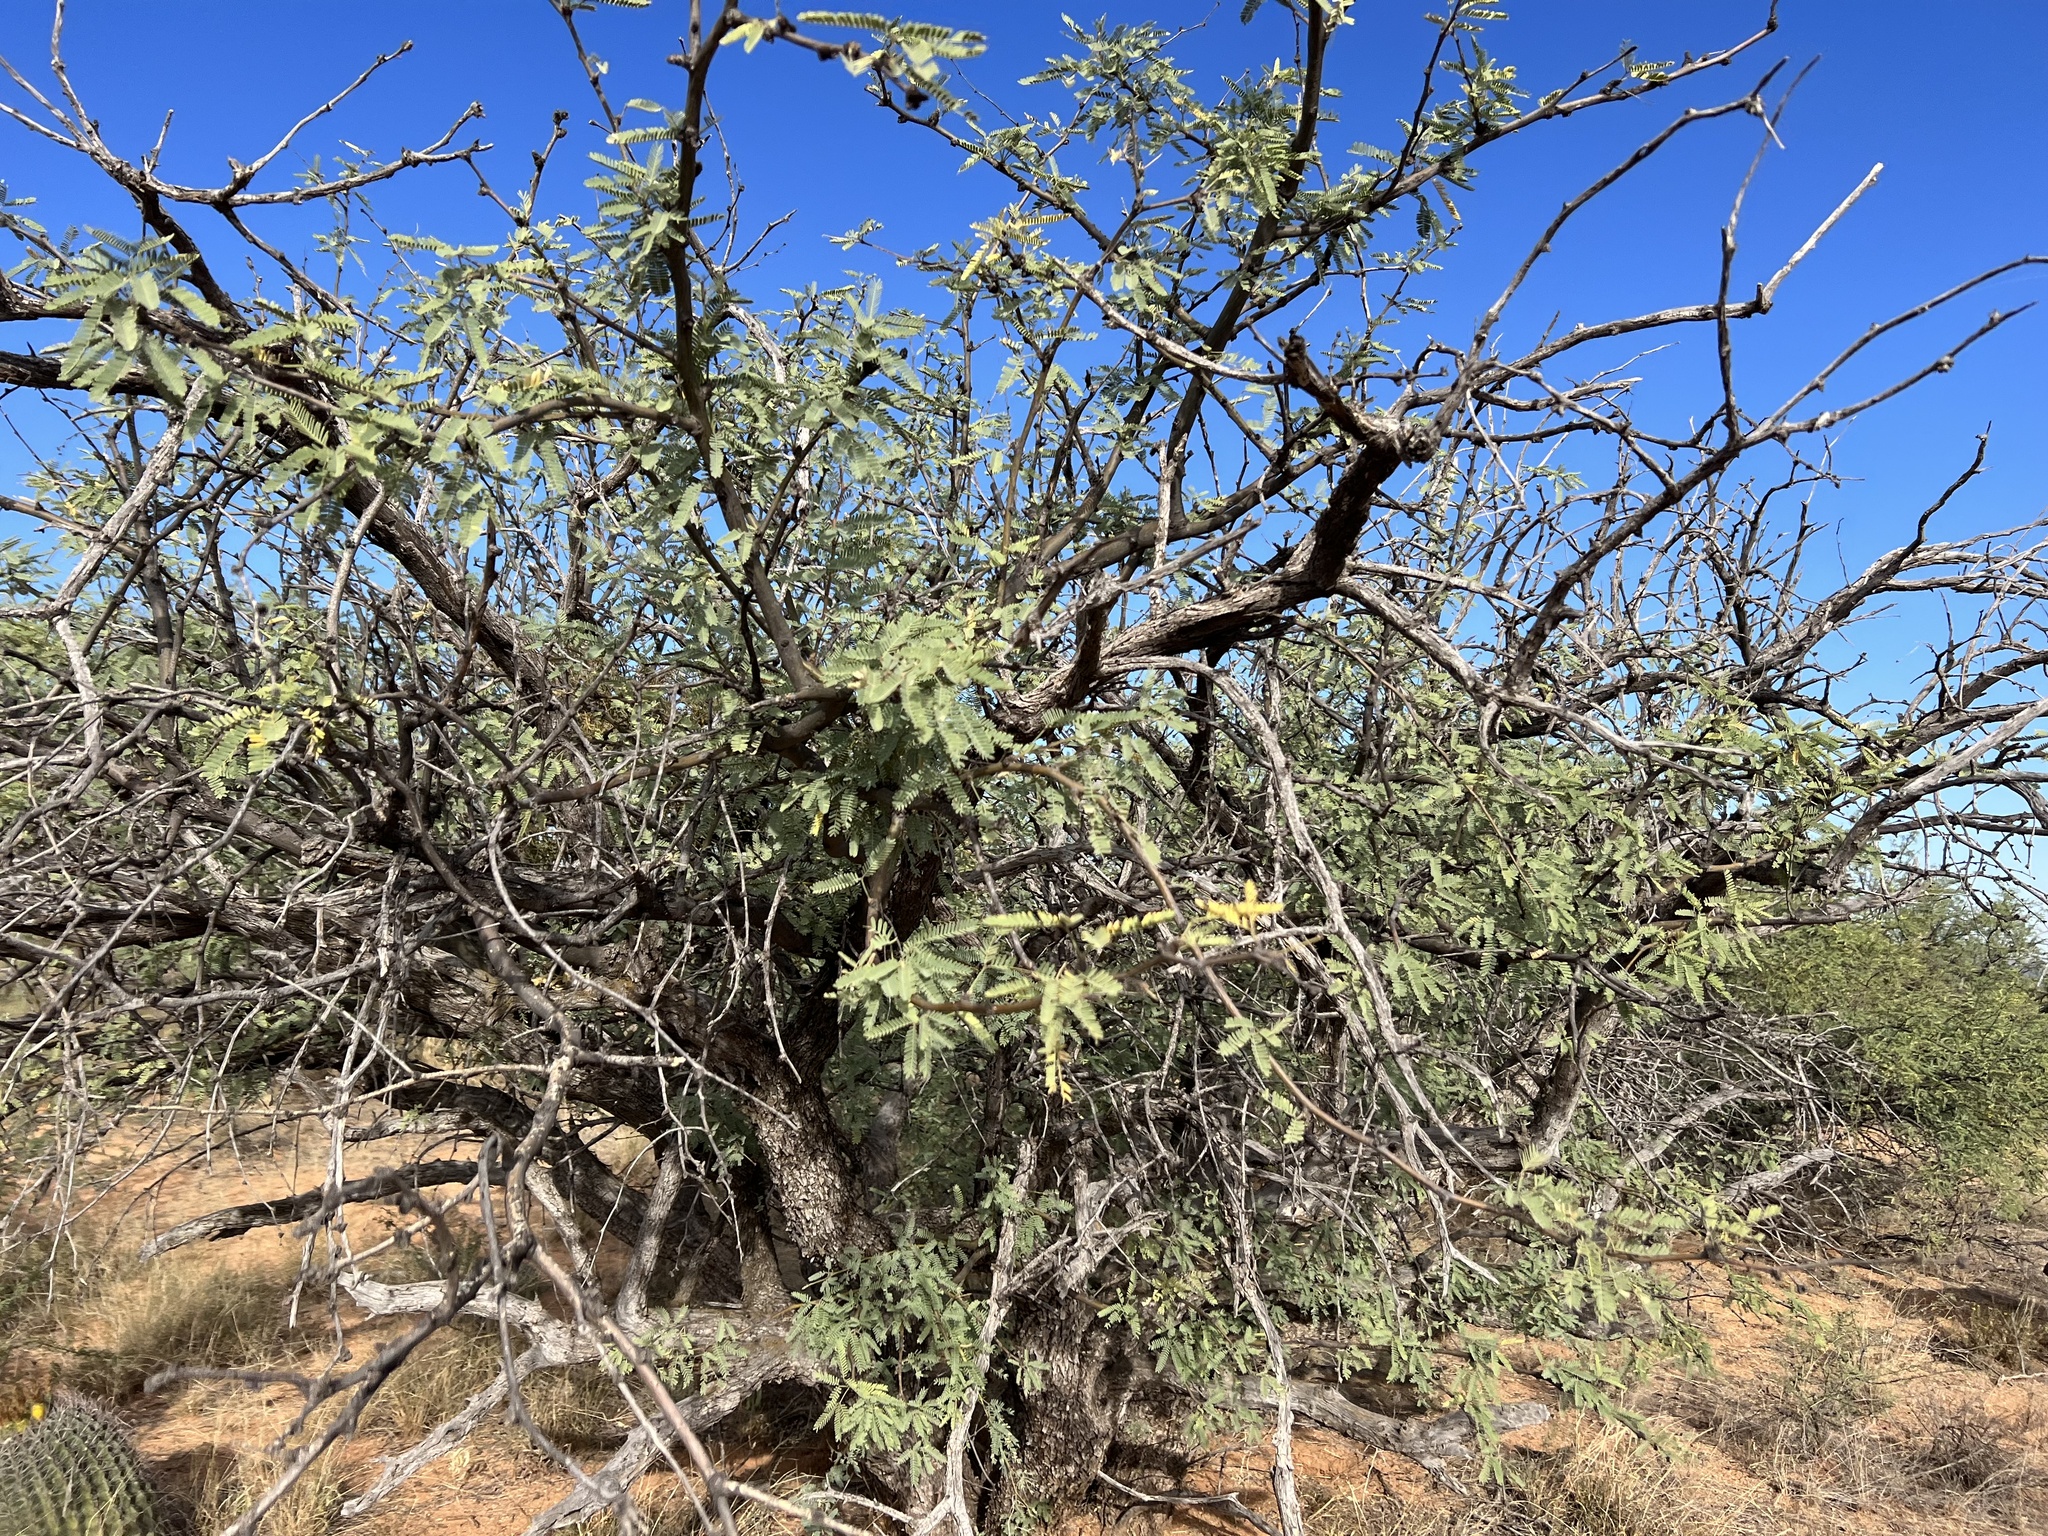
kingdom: Plantae
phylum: Tracheophyta
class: Magnoliopsida
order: Fabales
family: Fabaceae
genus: Prosopis
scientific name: Prosopis velutina
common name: Velvet mesquite
